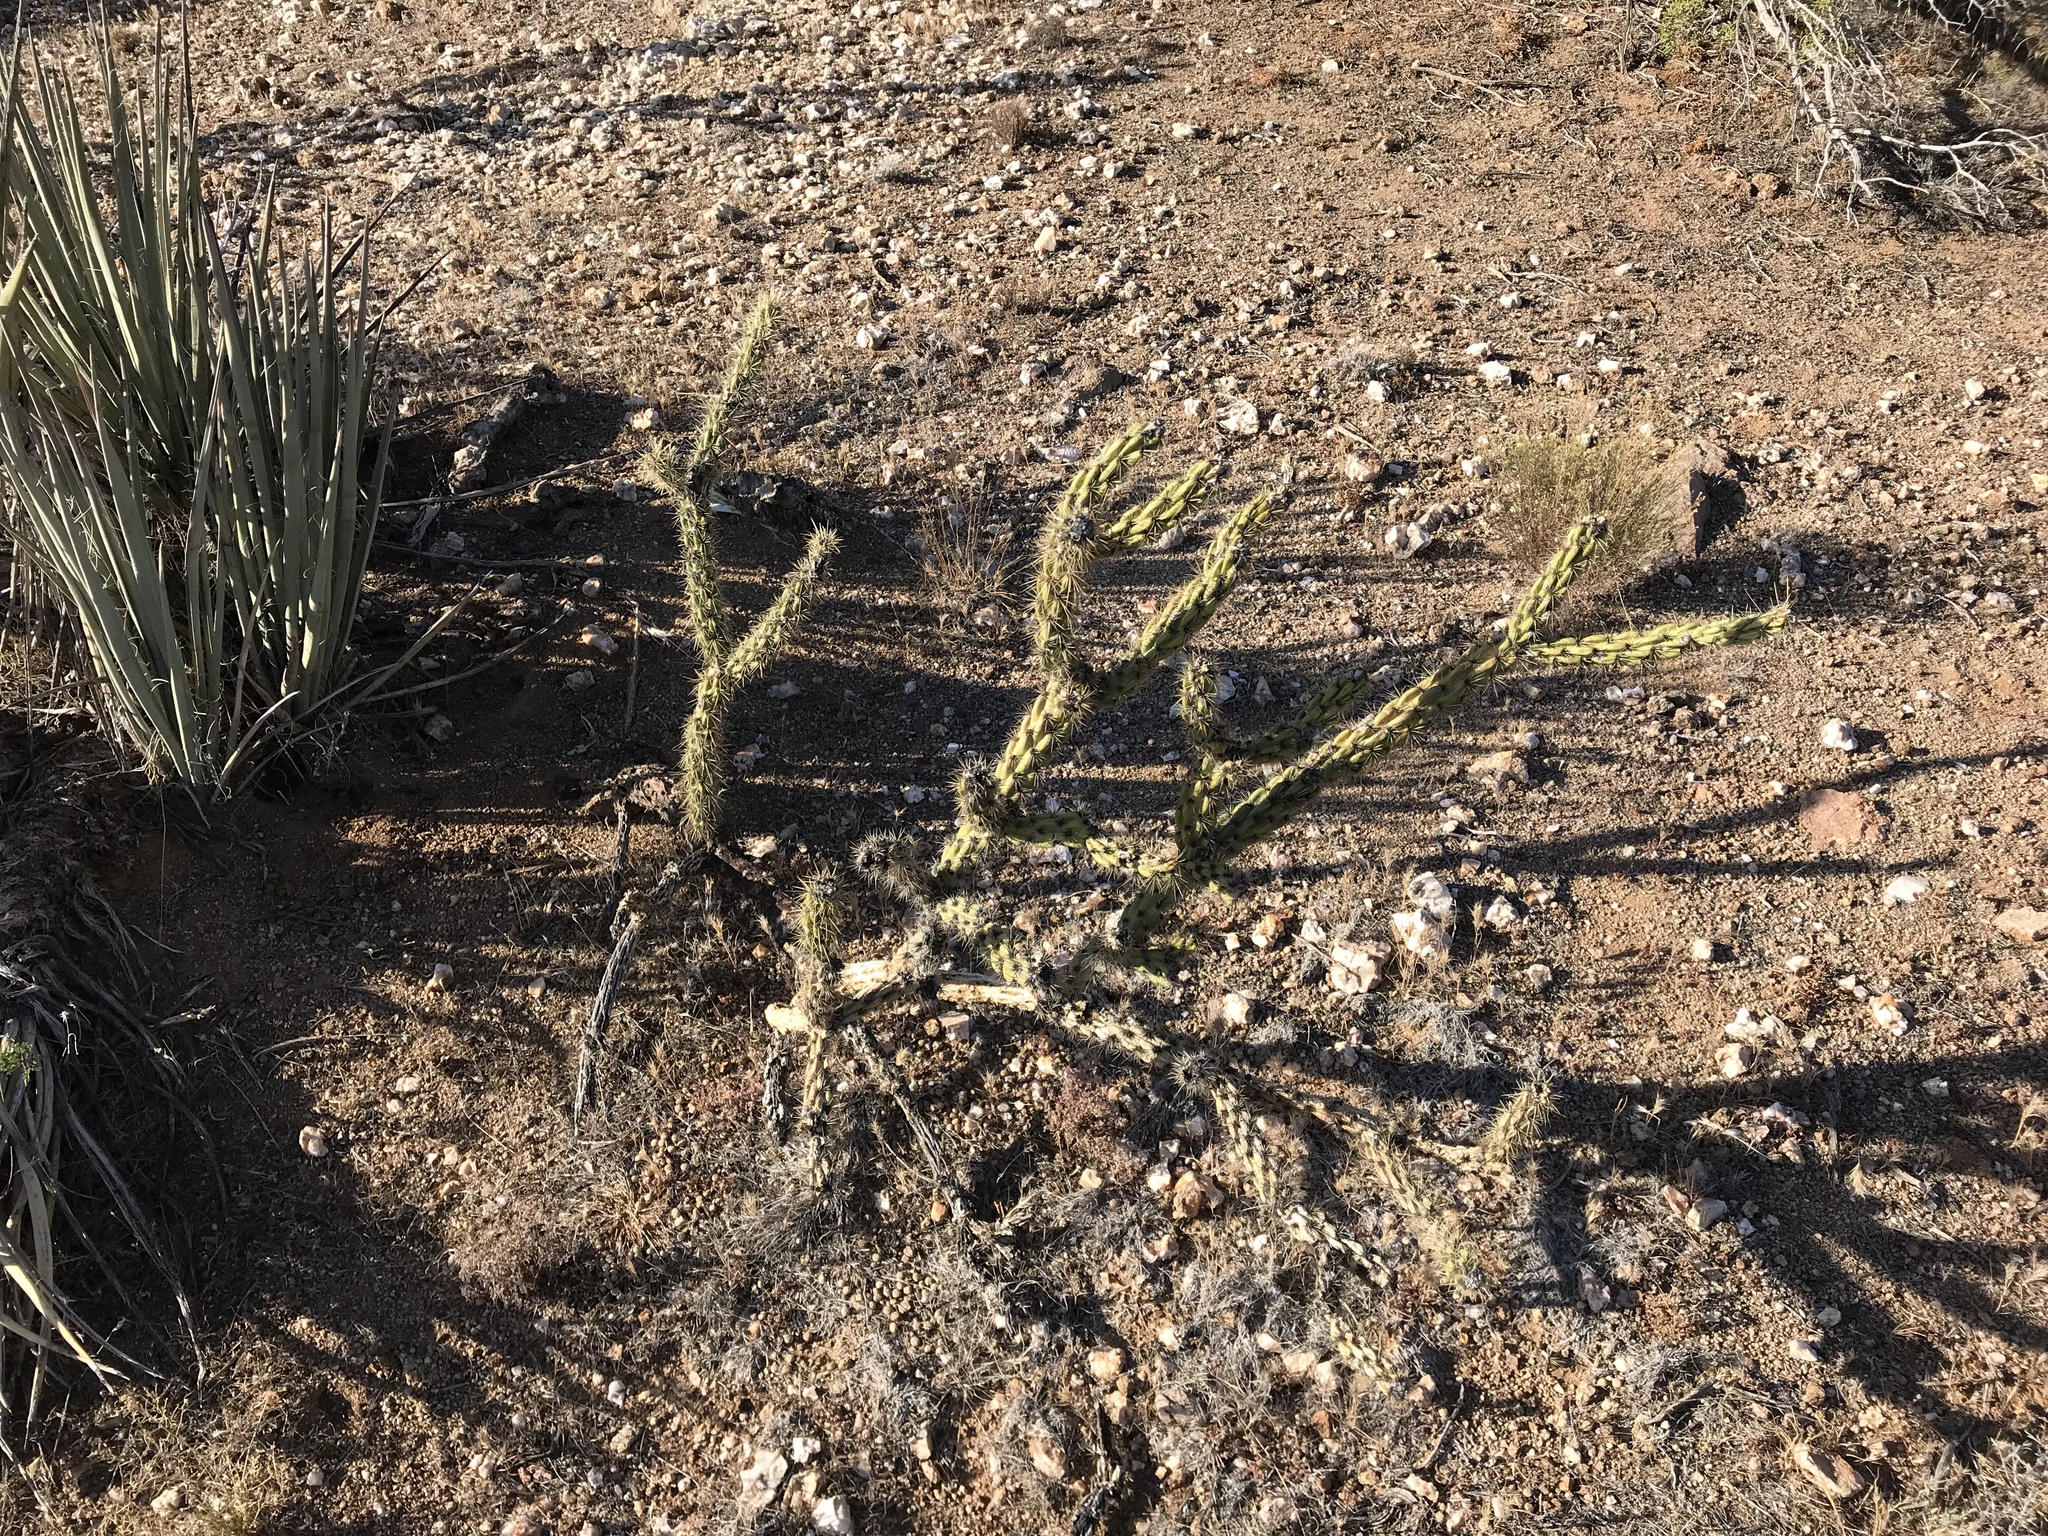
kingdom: Plantae
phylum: Tracheophyta
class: Magnoliopsida
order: Caryophyllales
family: Cactaceae
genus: Cylindropuntia
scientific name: Cylindropuntia acanthocarpa
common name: Buckhorn cholla
